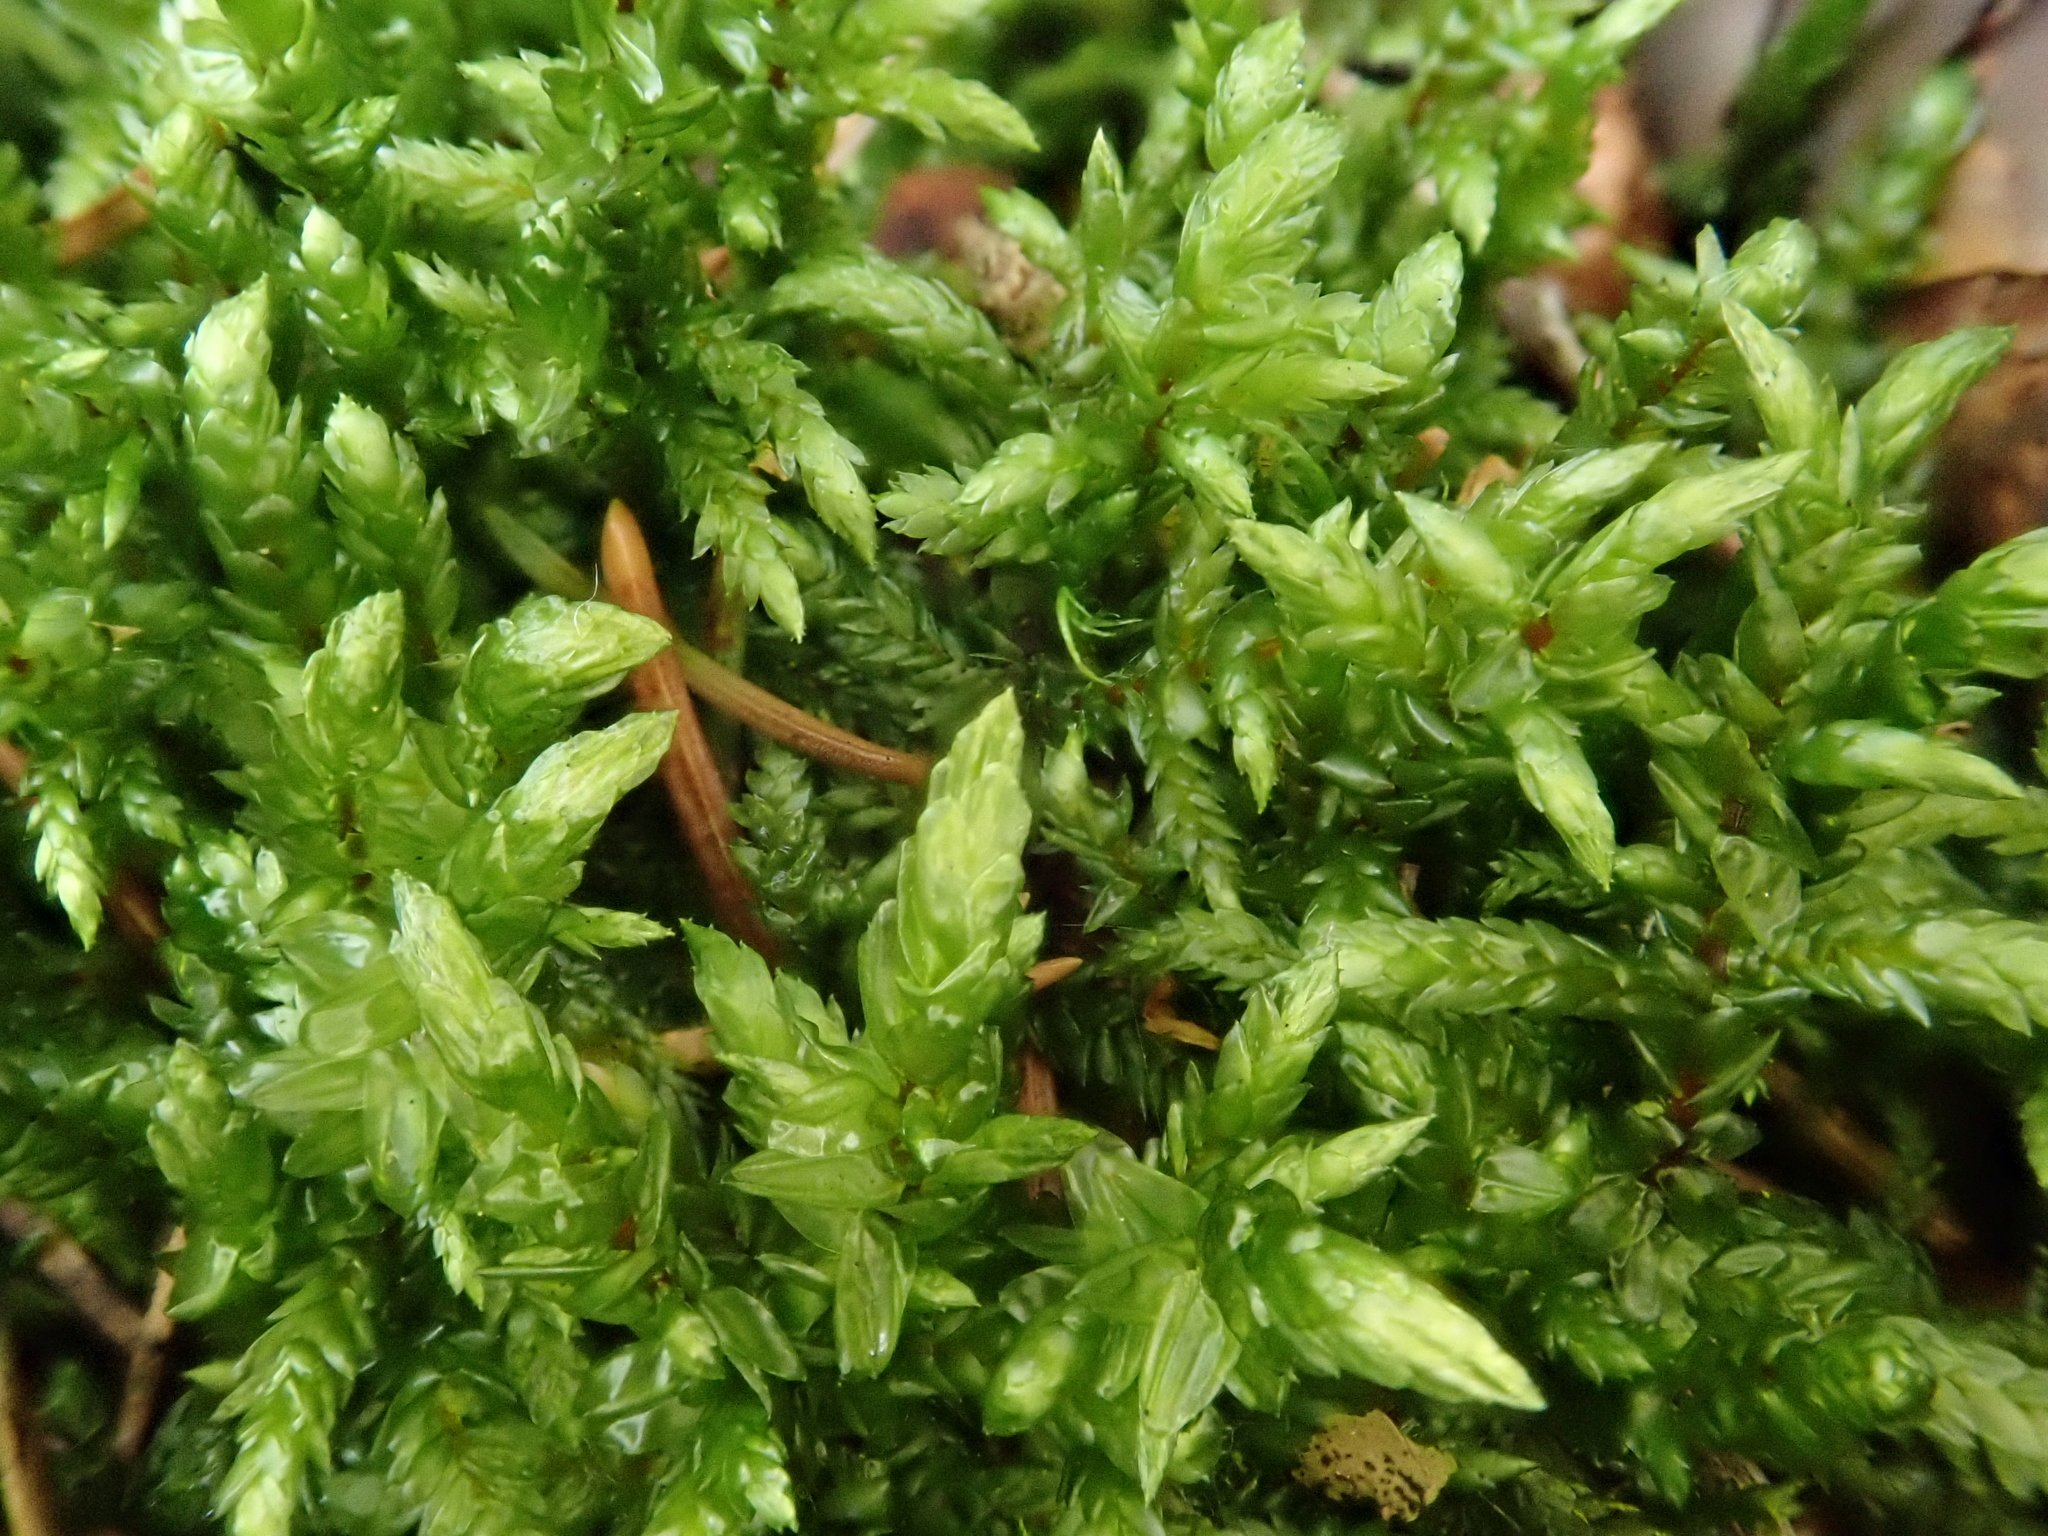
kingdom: Plantae
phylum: Bryophyta
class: Bryopsida
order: Hypnales
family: Hylocomiaceae
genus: Pleurozium
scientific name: Pleurozium schreberi
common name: Red-stemmed feather moss
